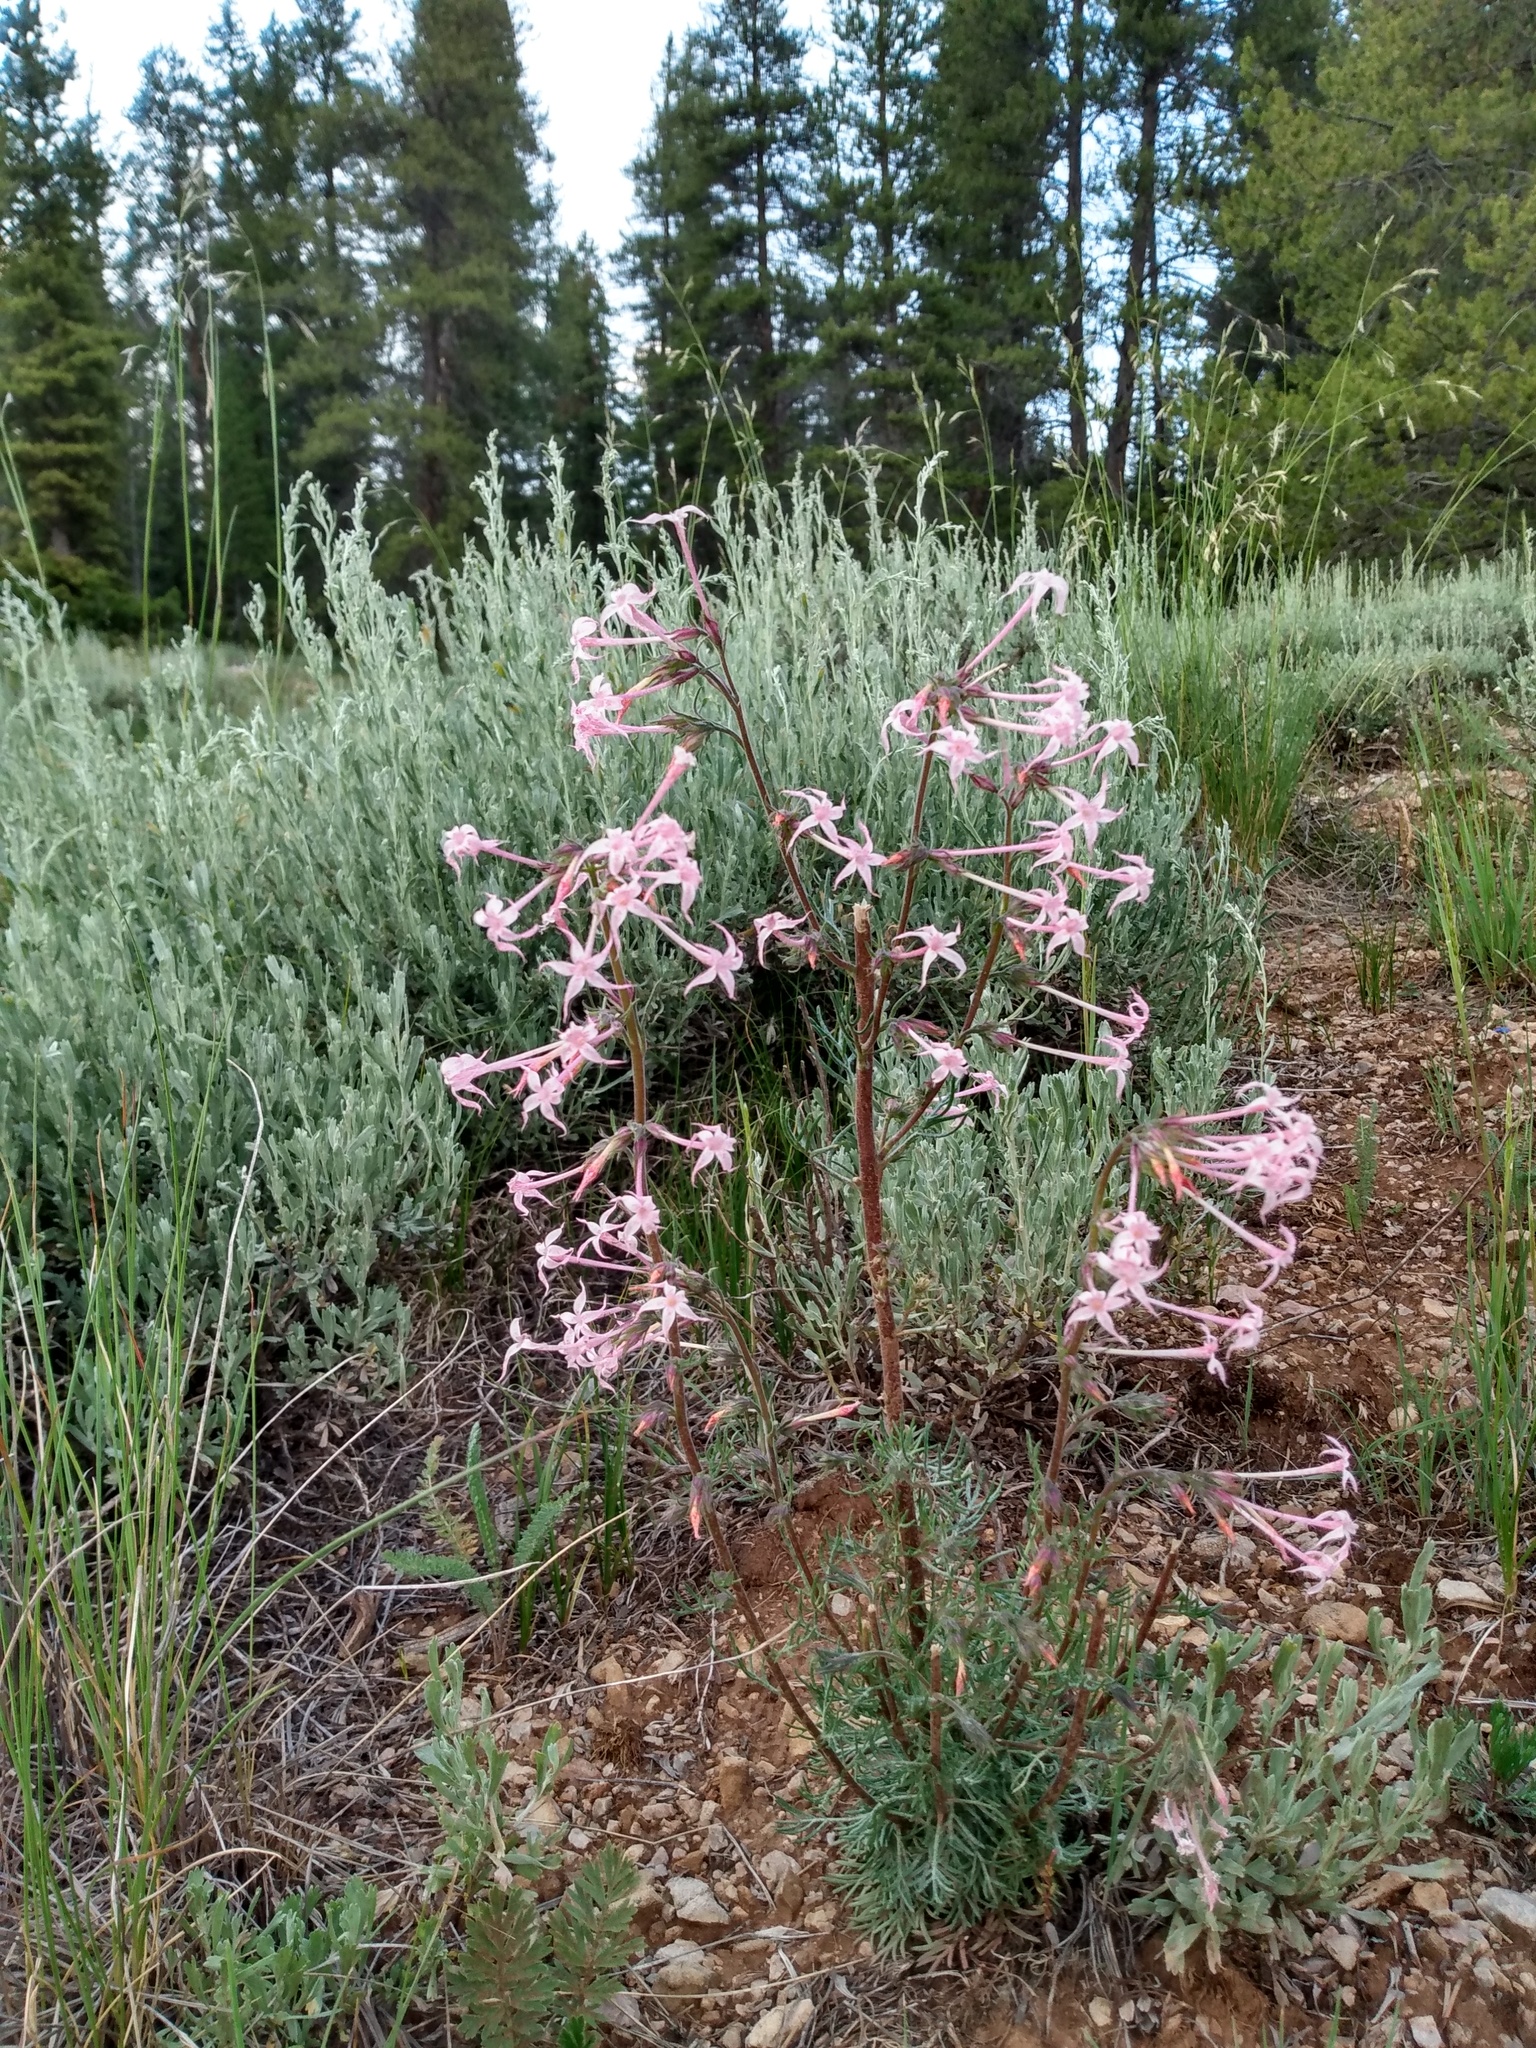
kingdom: Plantae
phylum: Tracheophyta
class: Magnoliopsida
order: Ericales
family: Polemoniaceae
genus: Ipomopsis
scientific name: Ipomopsis tenuituba
